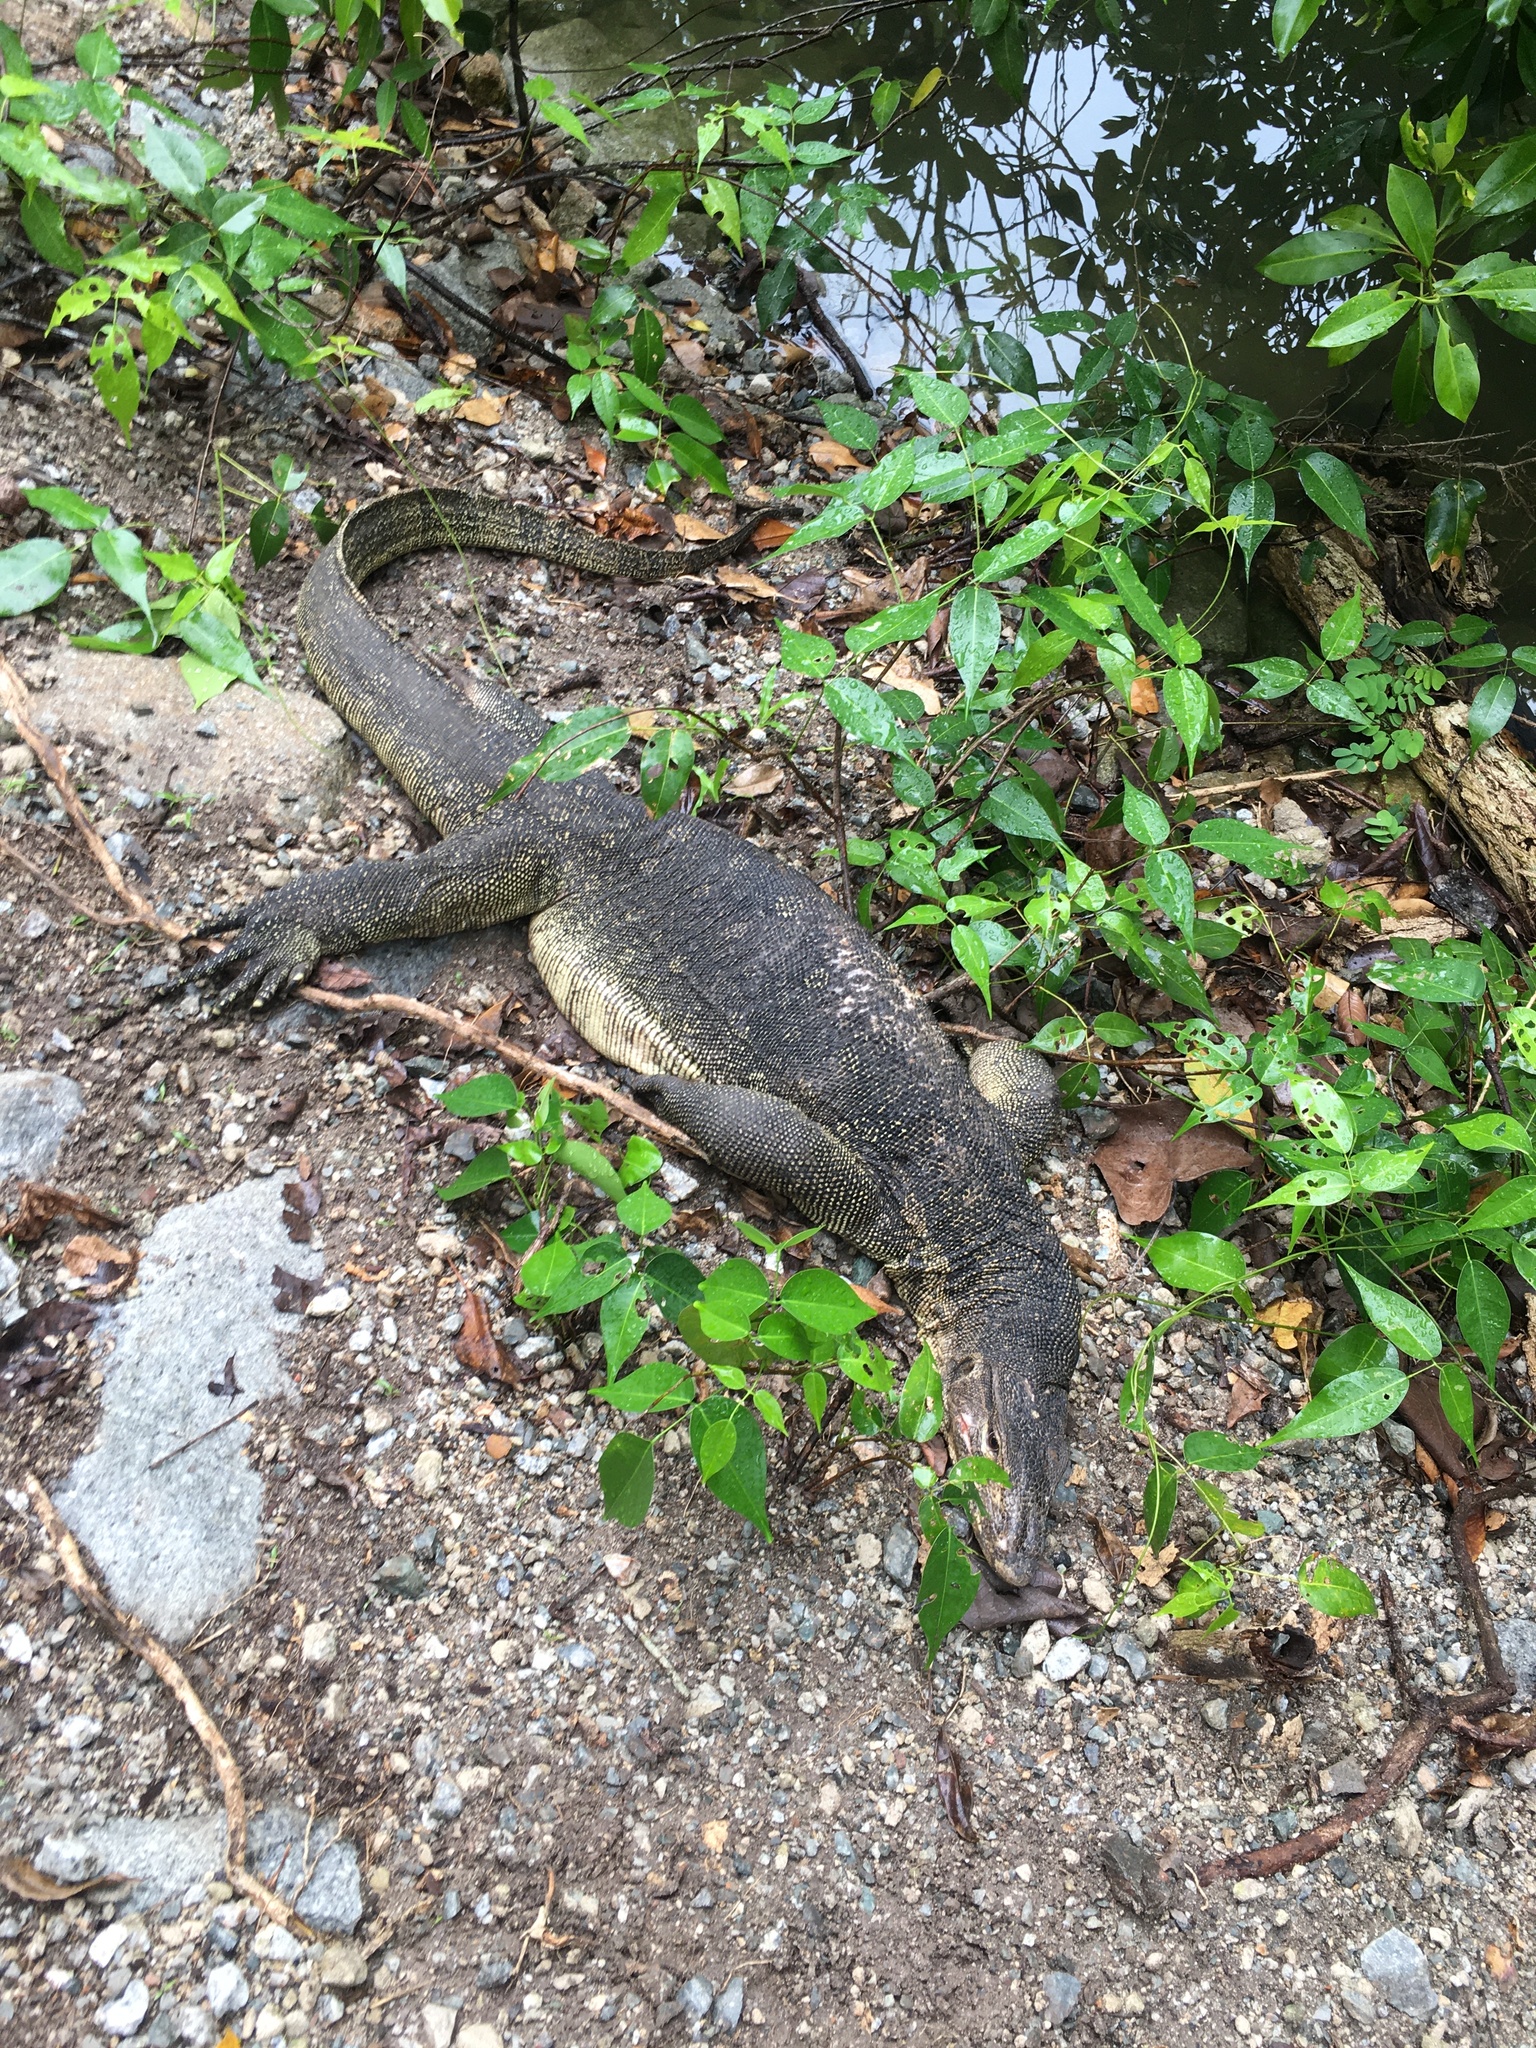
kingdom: Animalia
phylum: Chordata
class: Squamata
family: Varanidae
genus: Varanus
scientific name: Varanus salvator
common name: Common water monitor
